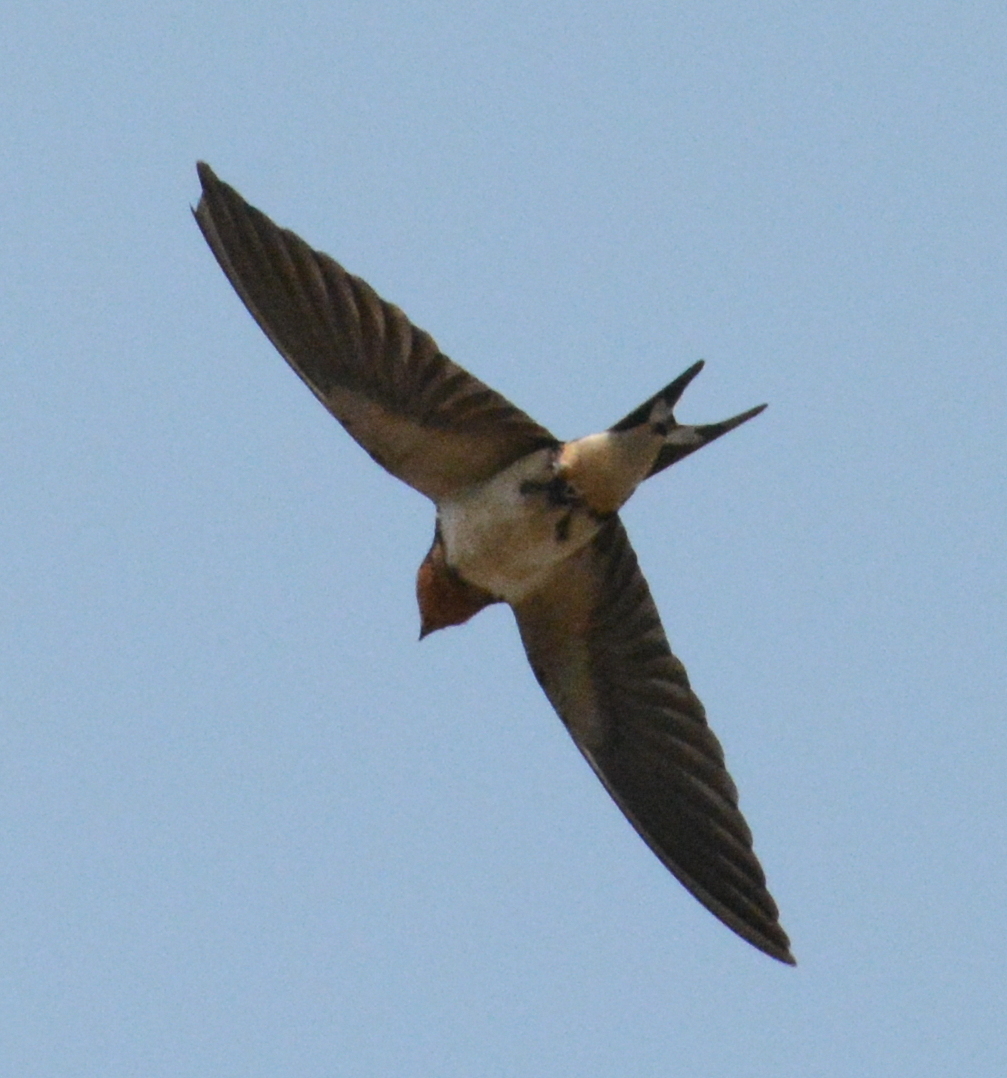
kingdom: Animalia
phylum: Chordata
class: Aves
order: Passeriformes
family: Hirundinidae
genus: Hirundo
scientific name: Hirundo rustica
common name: Barn swallow
